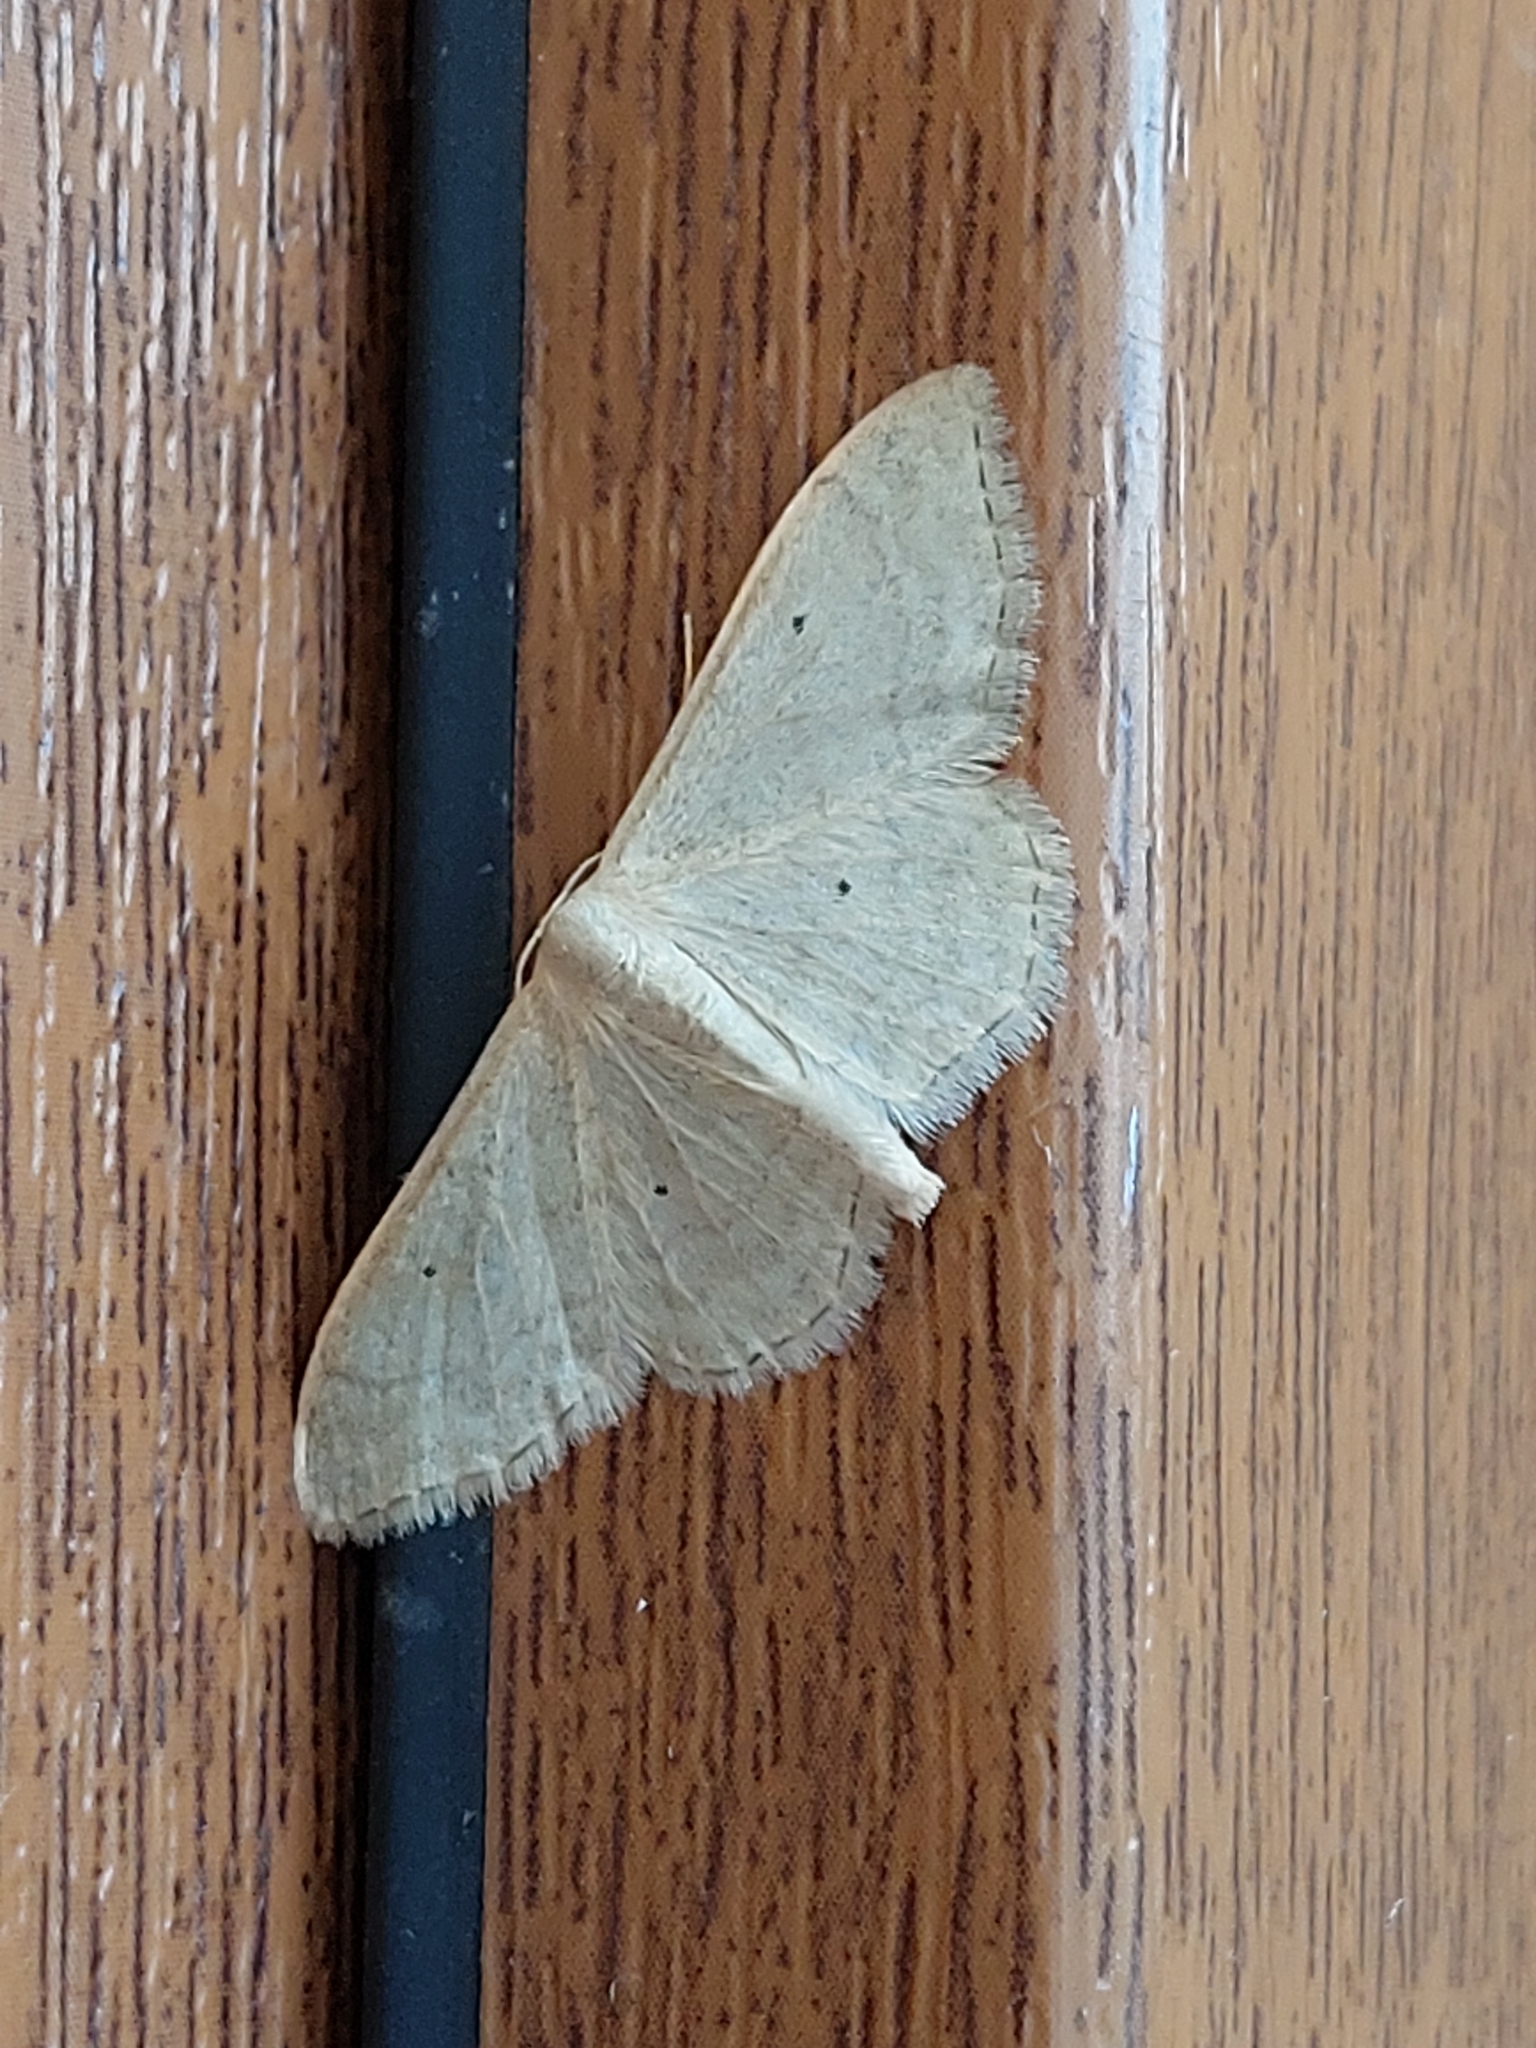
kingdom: Animalia
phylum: Arthropoda
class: Insecta
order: Lepidoptera
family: Geometridae
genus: Idaea
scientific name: Idaea straminata
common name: Plain wave
